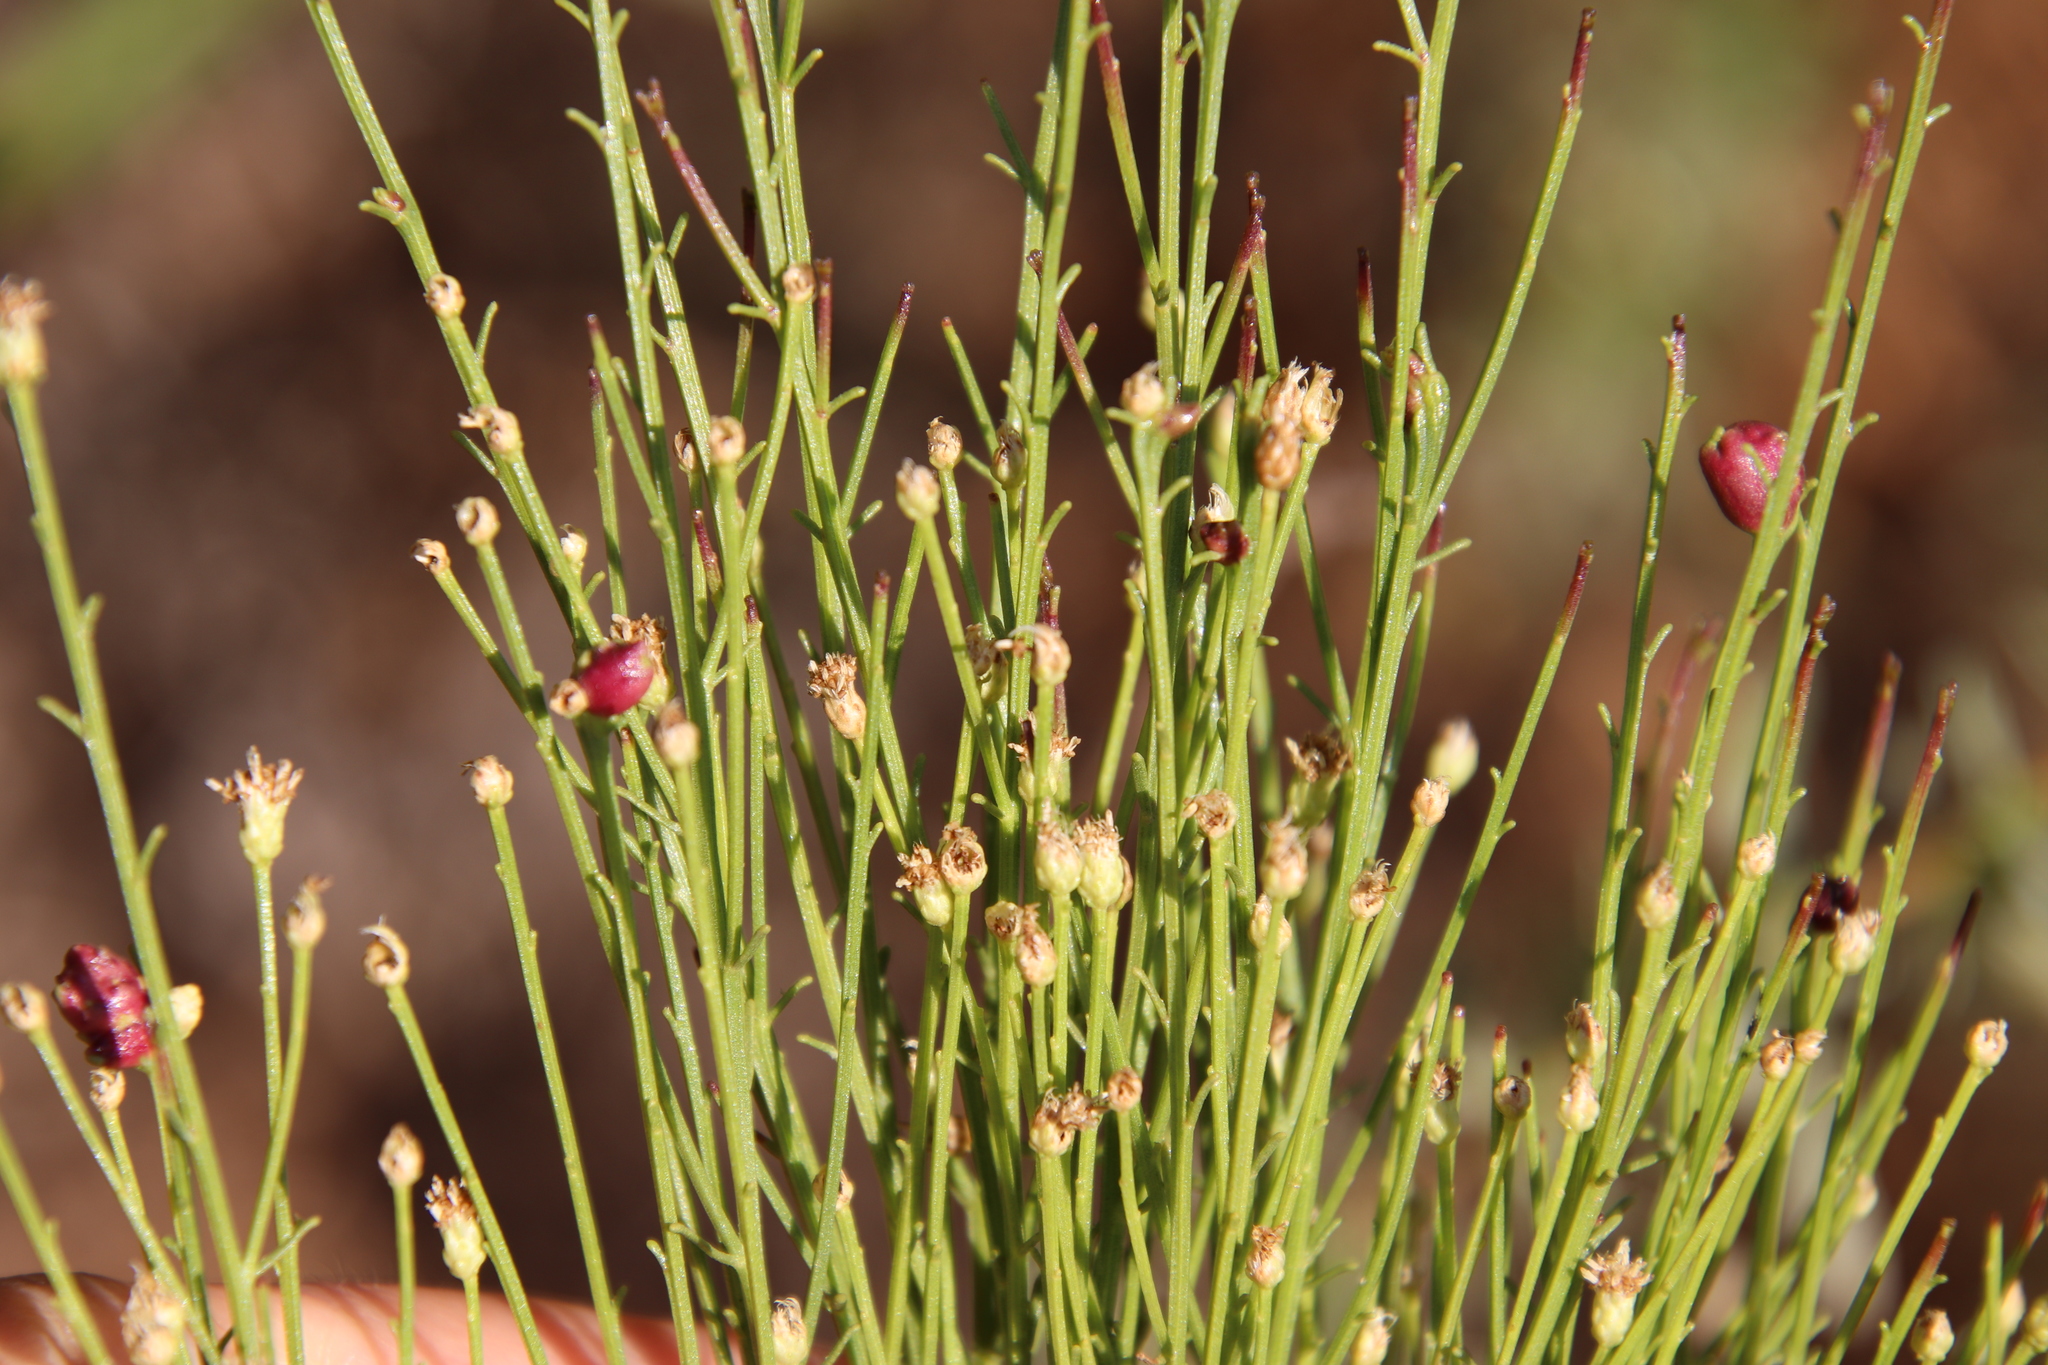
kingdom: Animalia
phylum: Arthropoda
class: Insecta
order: Diptera
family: Cecidomyiidae
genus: Rhopalomyia
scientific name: Rhopalomyia californica
